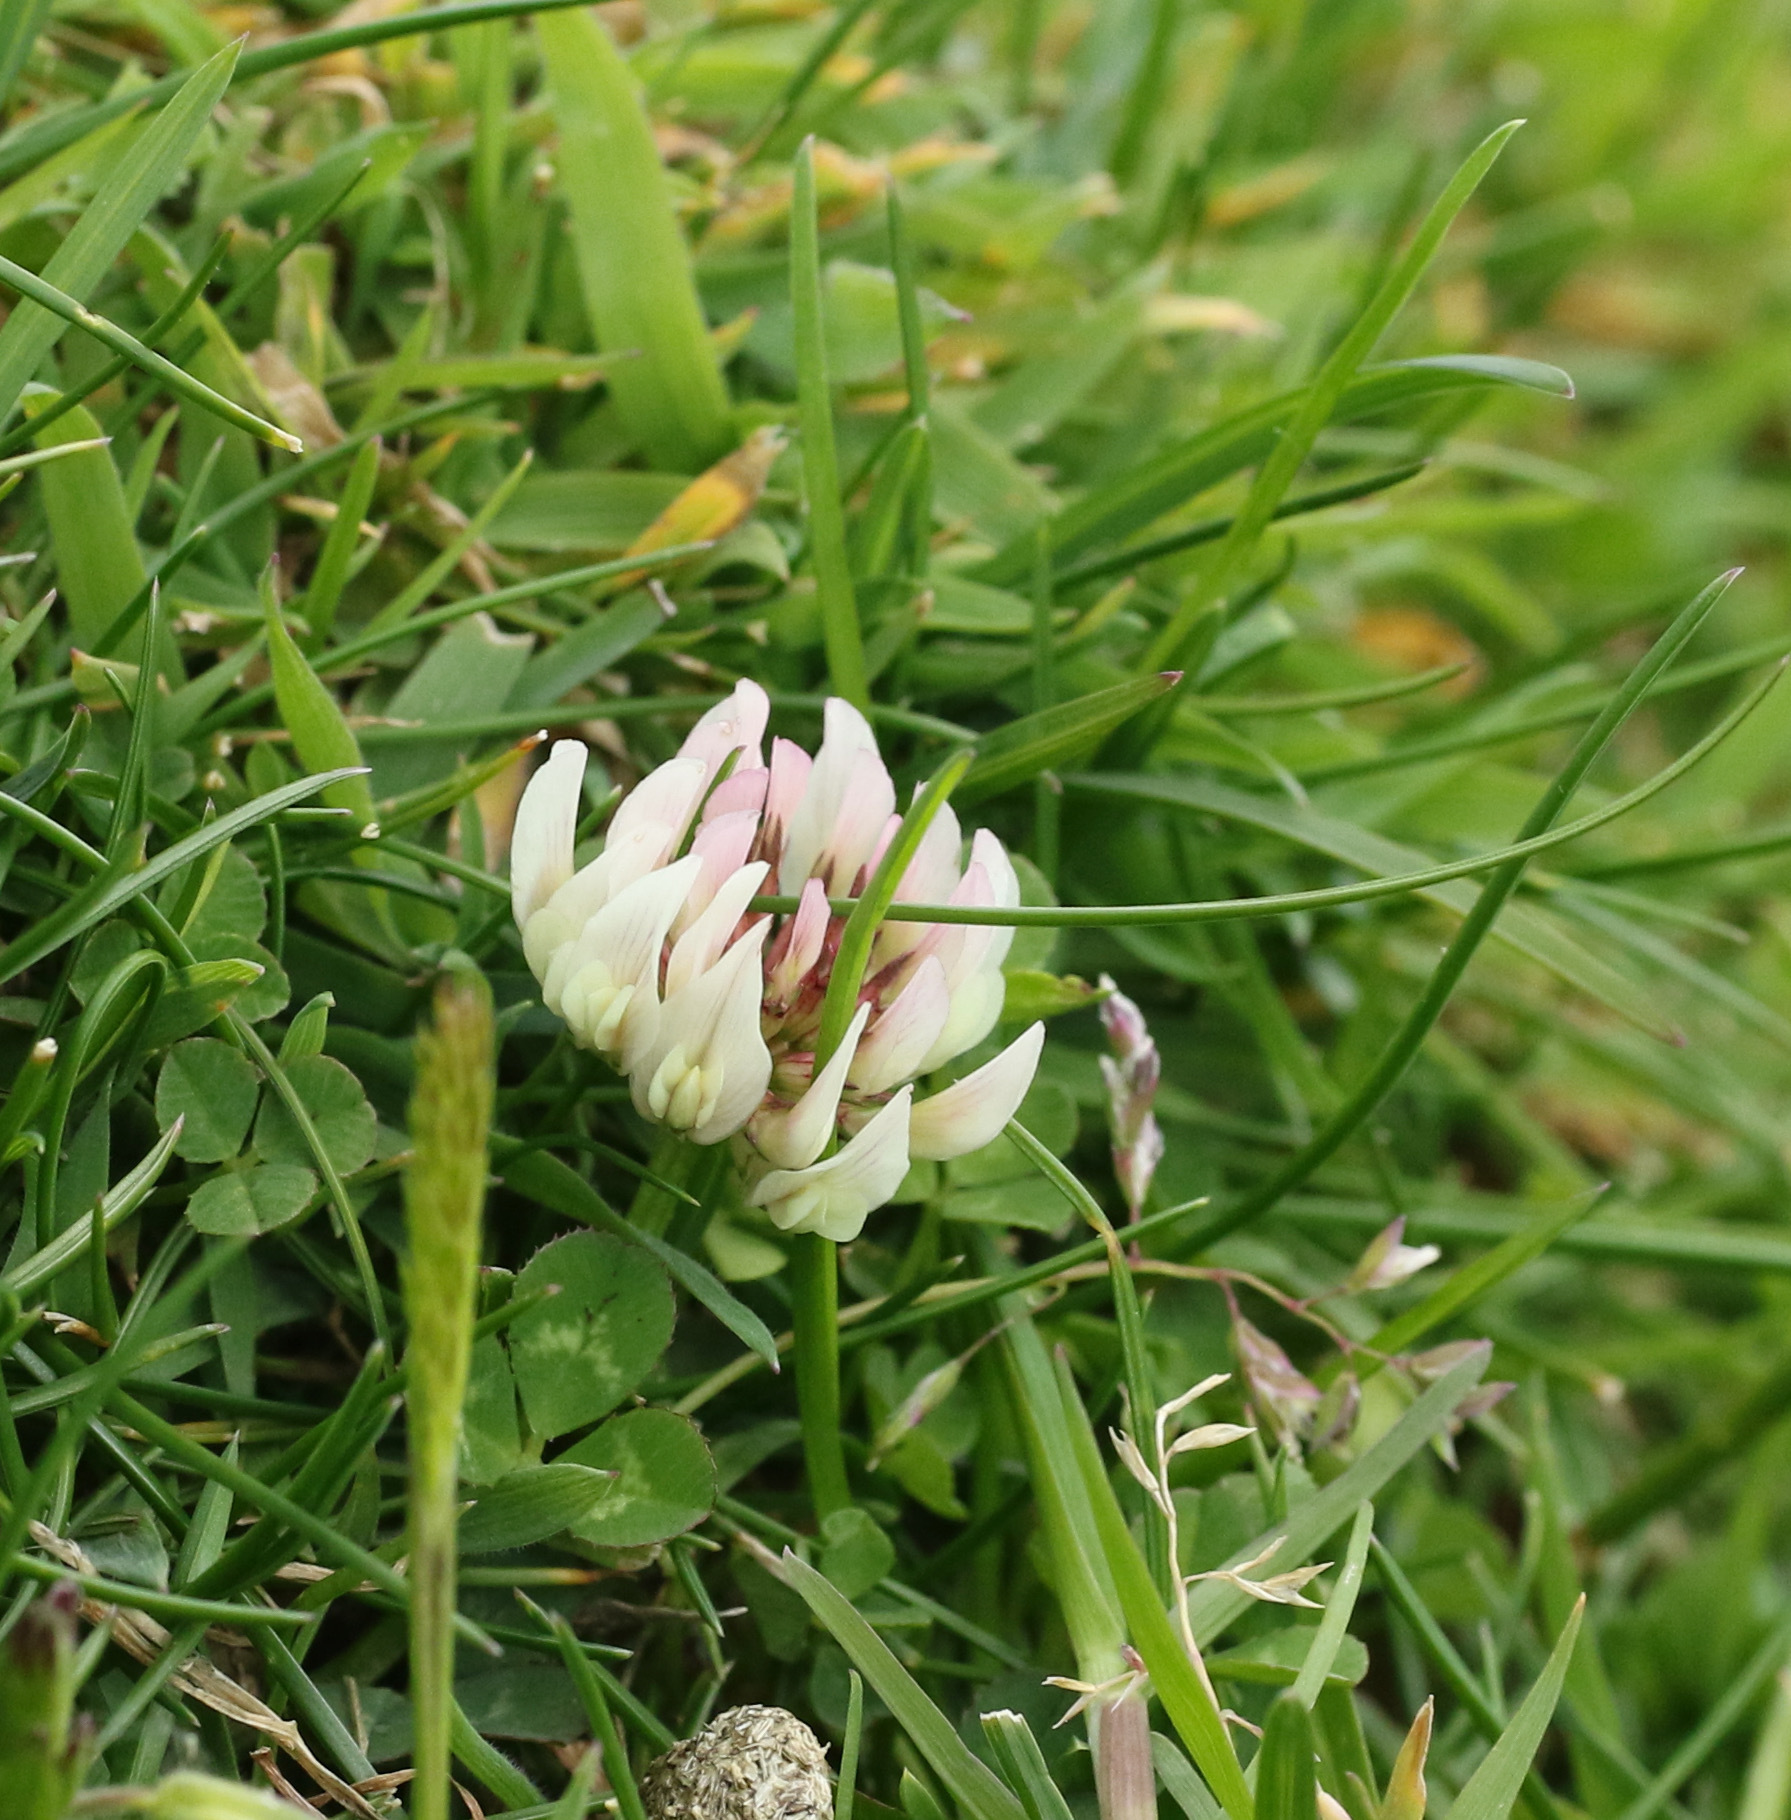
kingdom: Plantae
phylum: Tracheophyta
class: Magnoliopsida
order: Fabales
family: Fabaceae
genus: Trifolium
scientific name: Trifolium repens
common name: White clover
